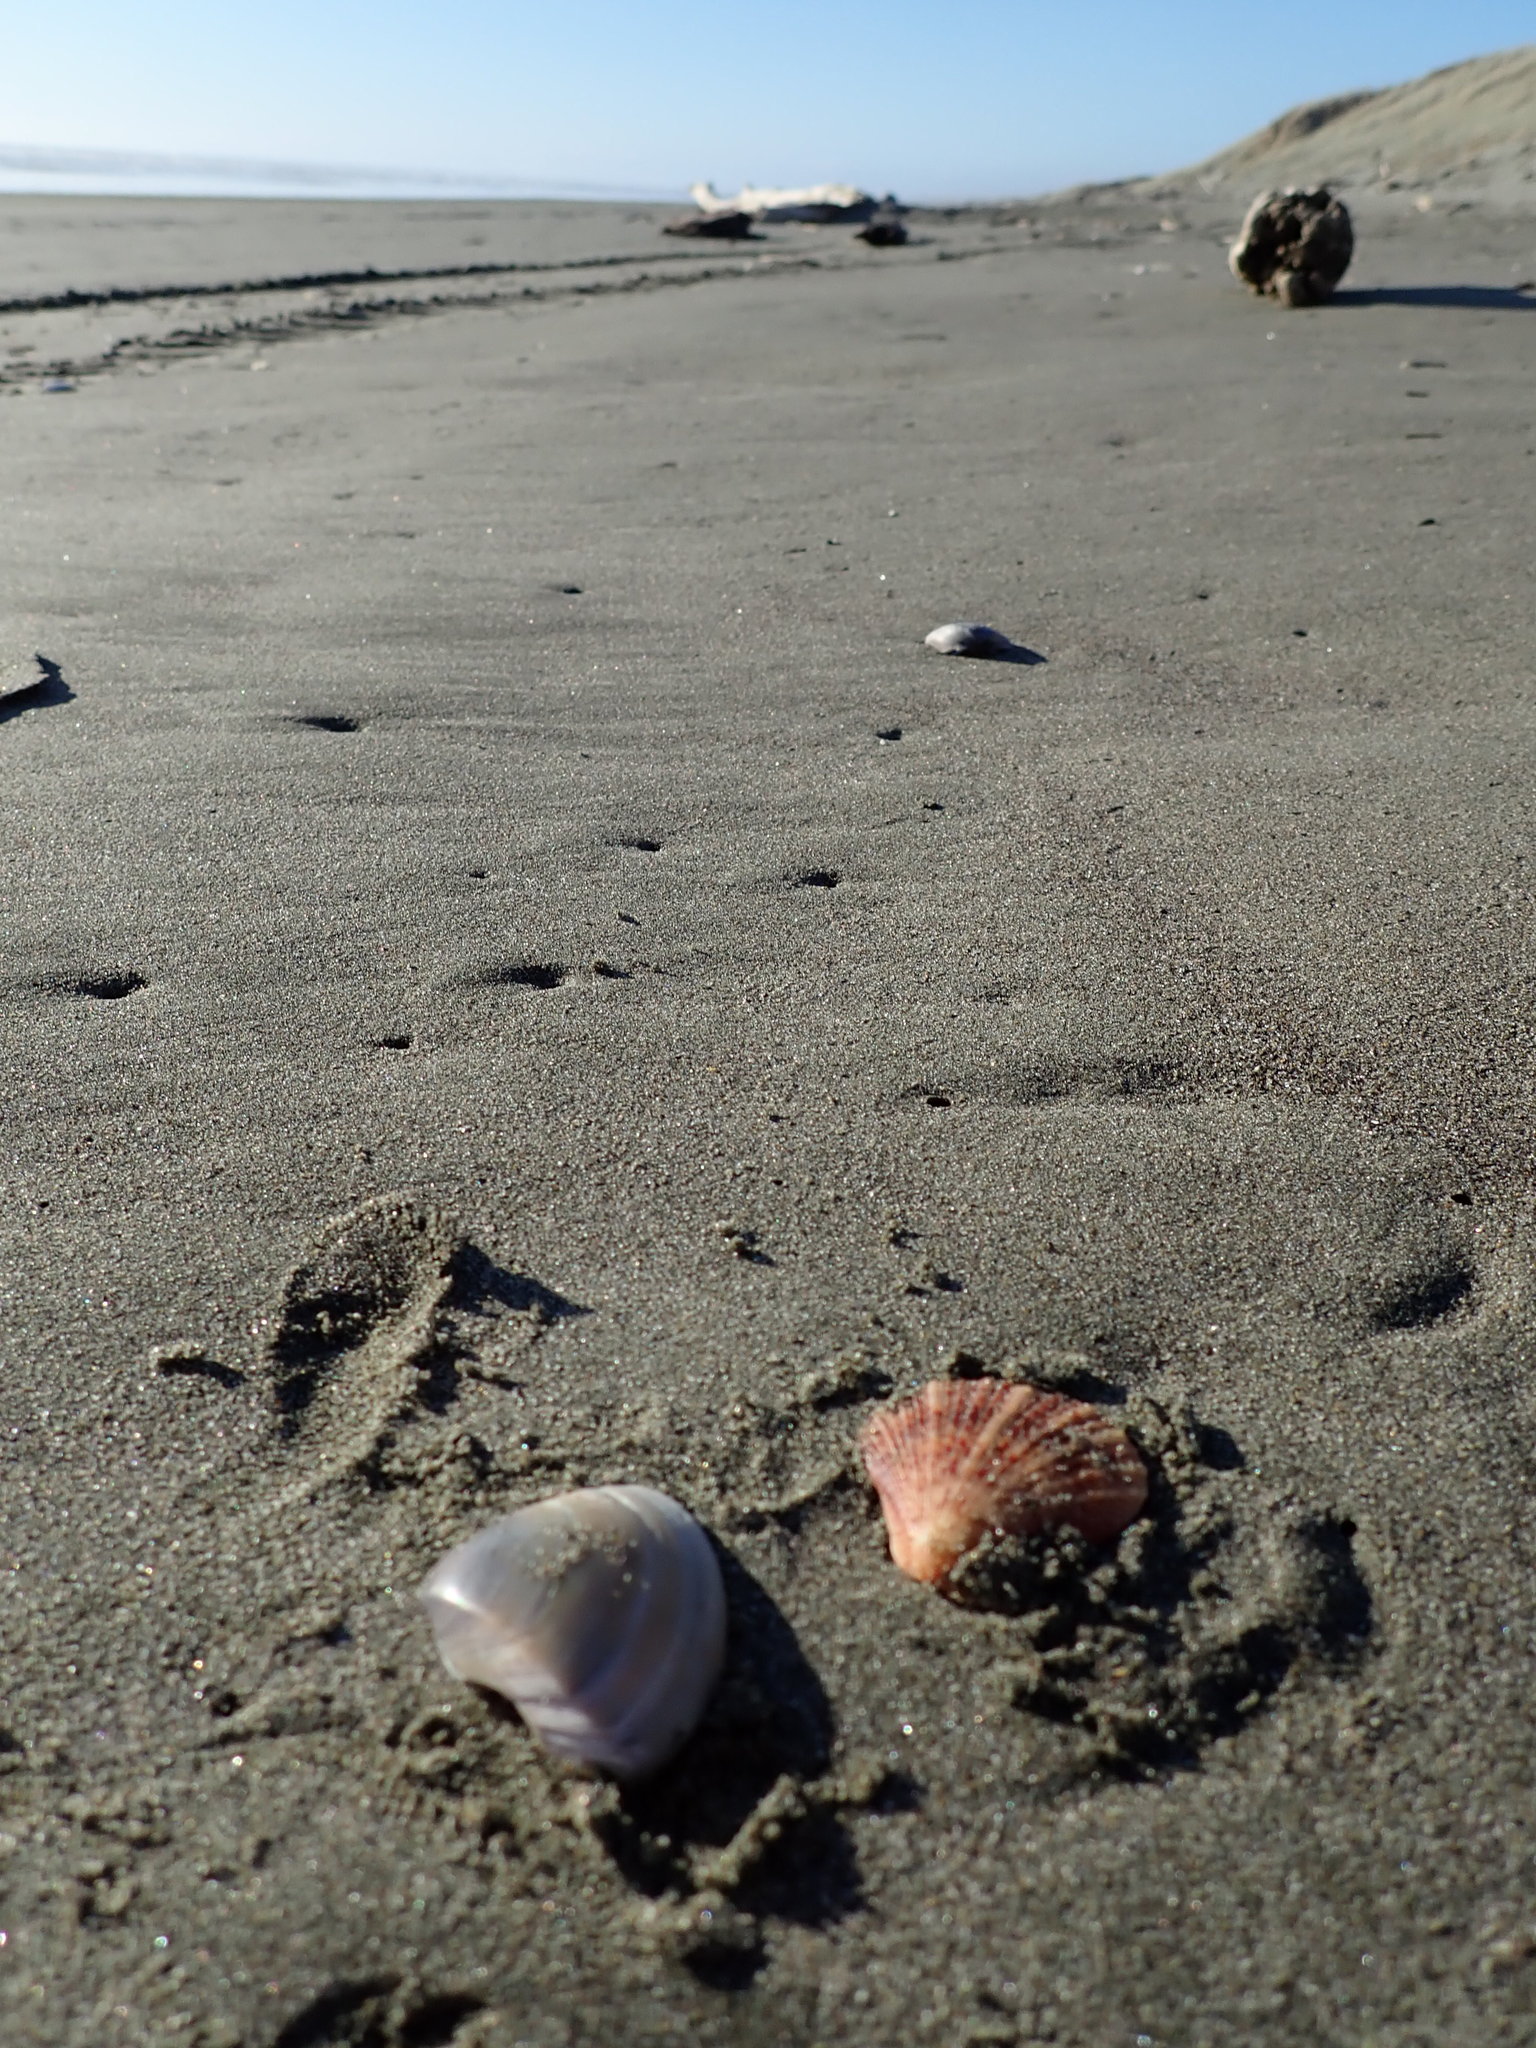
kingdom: Animalia
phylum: Mollusca
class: Bivalvia
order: Venerida
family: Mactridae
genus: Crassula
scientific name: Crassula aequilatera
